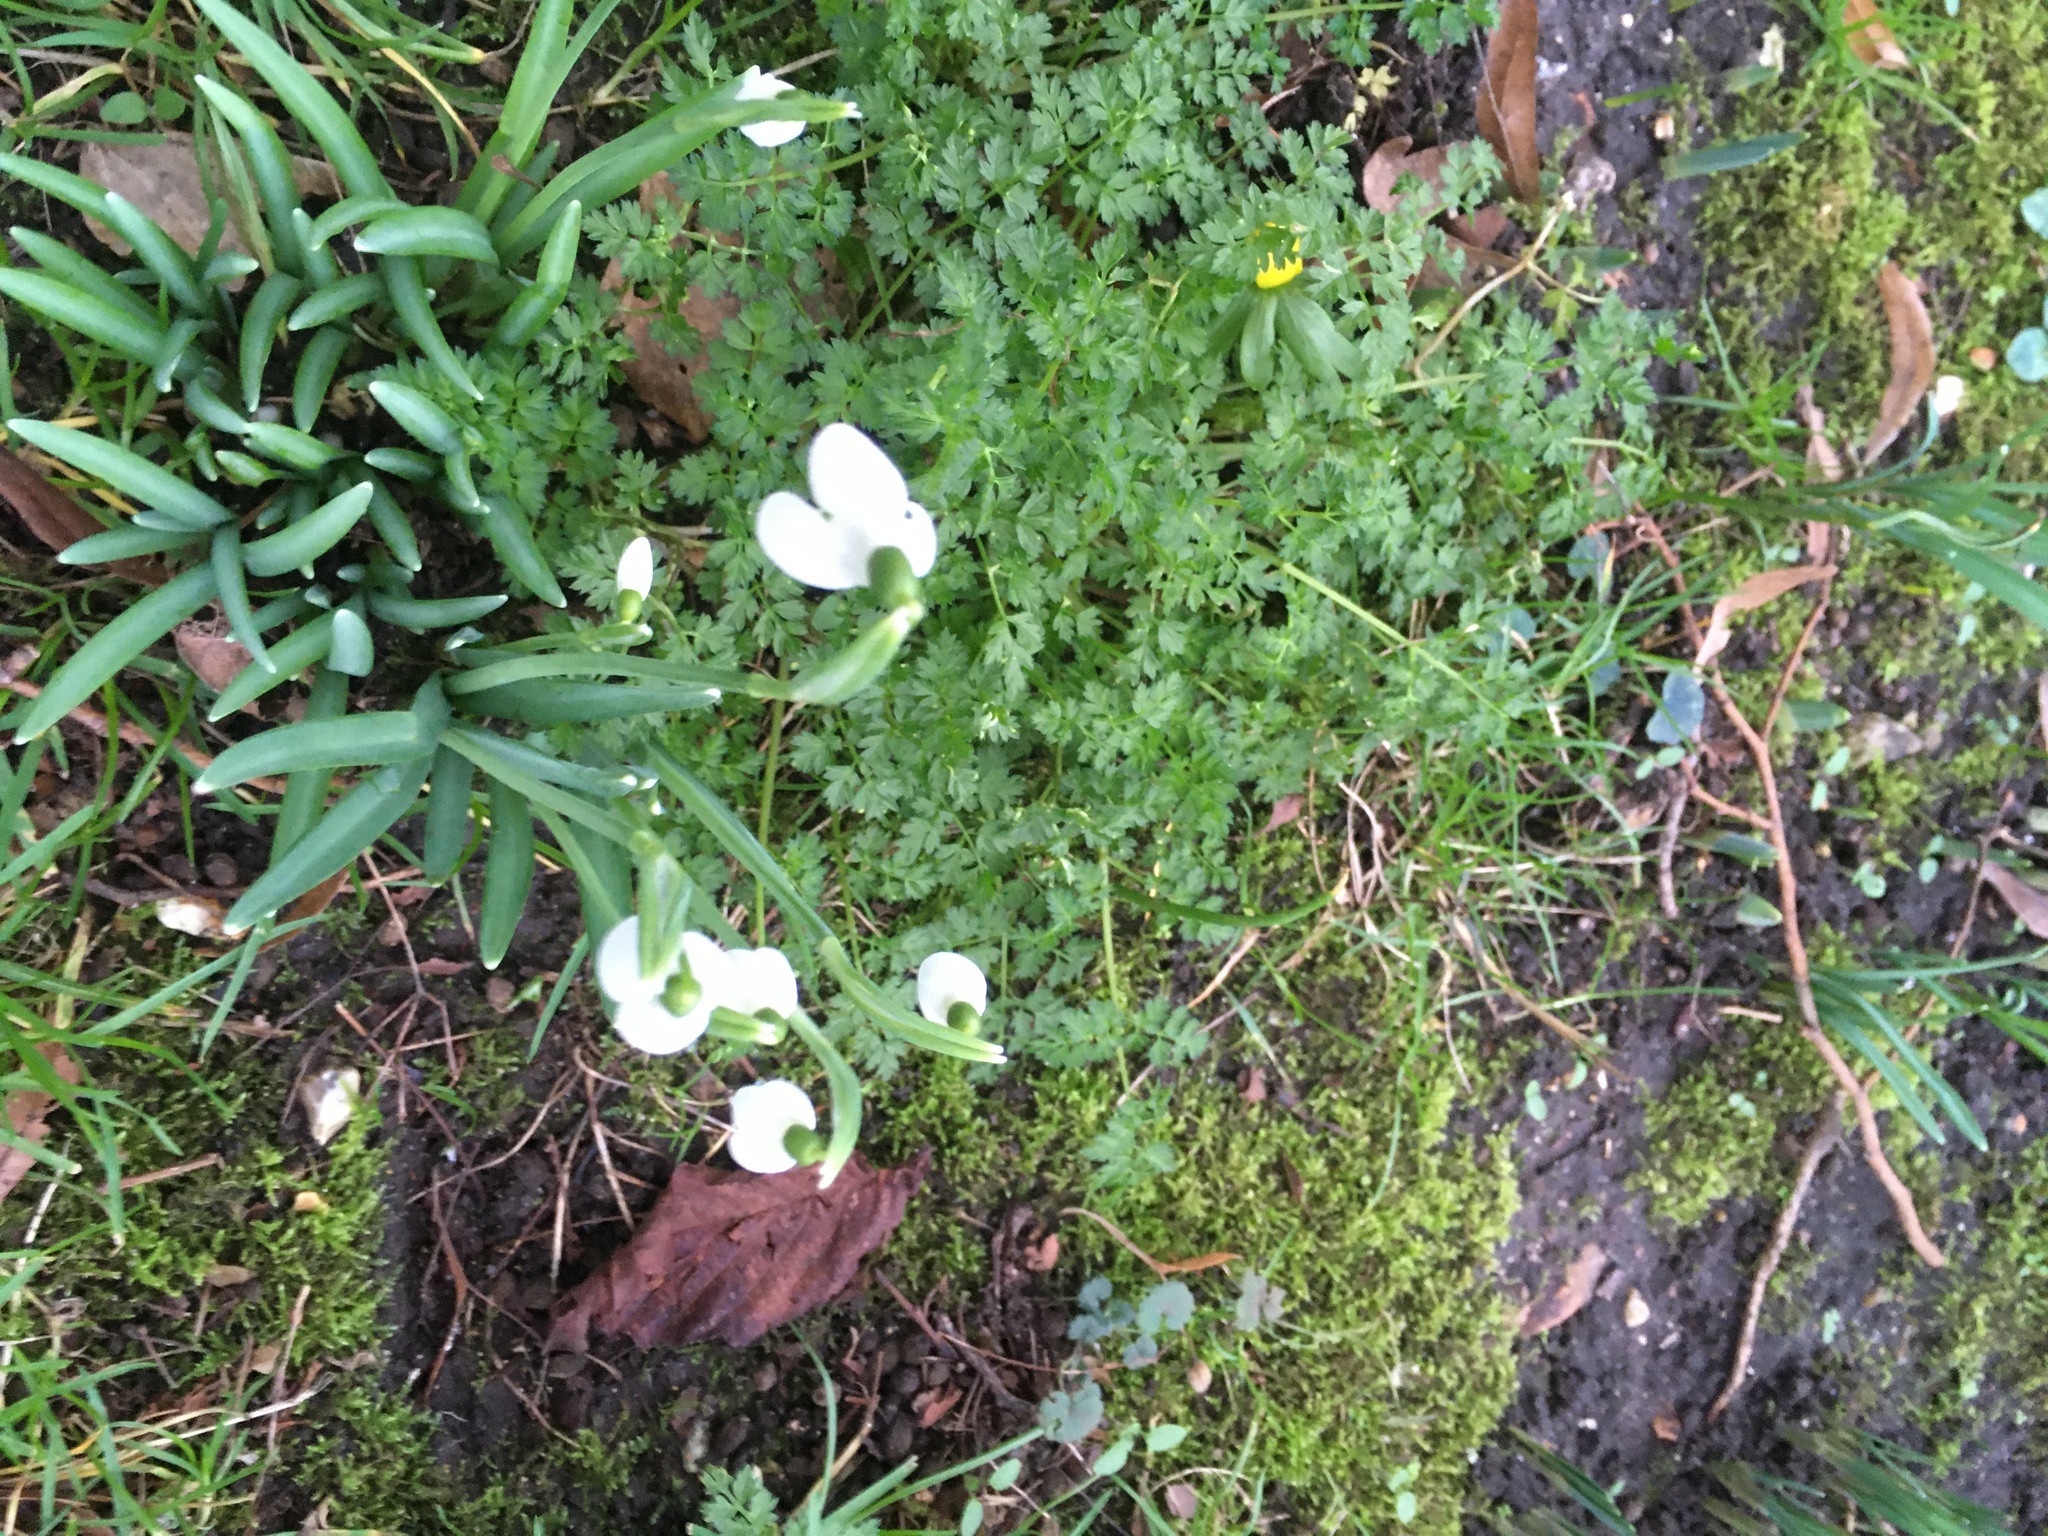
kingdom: Plantae
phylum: Tracheophyta
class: Liliopsida
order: Asparagales
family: Amaryllidaceae
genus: Galanthus
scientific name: Galanthus nivalis
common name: Snowdrop
